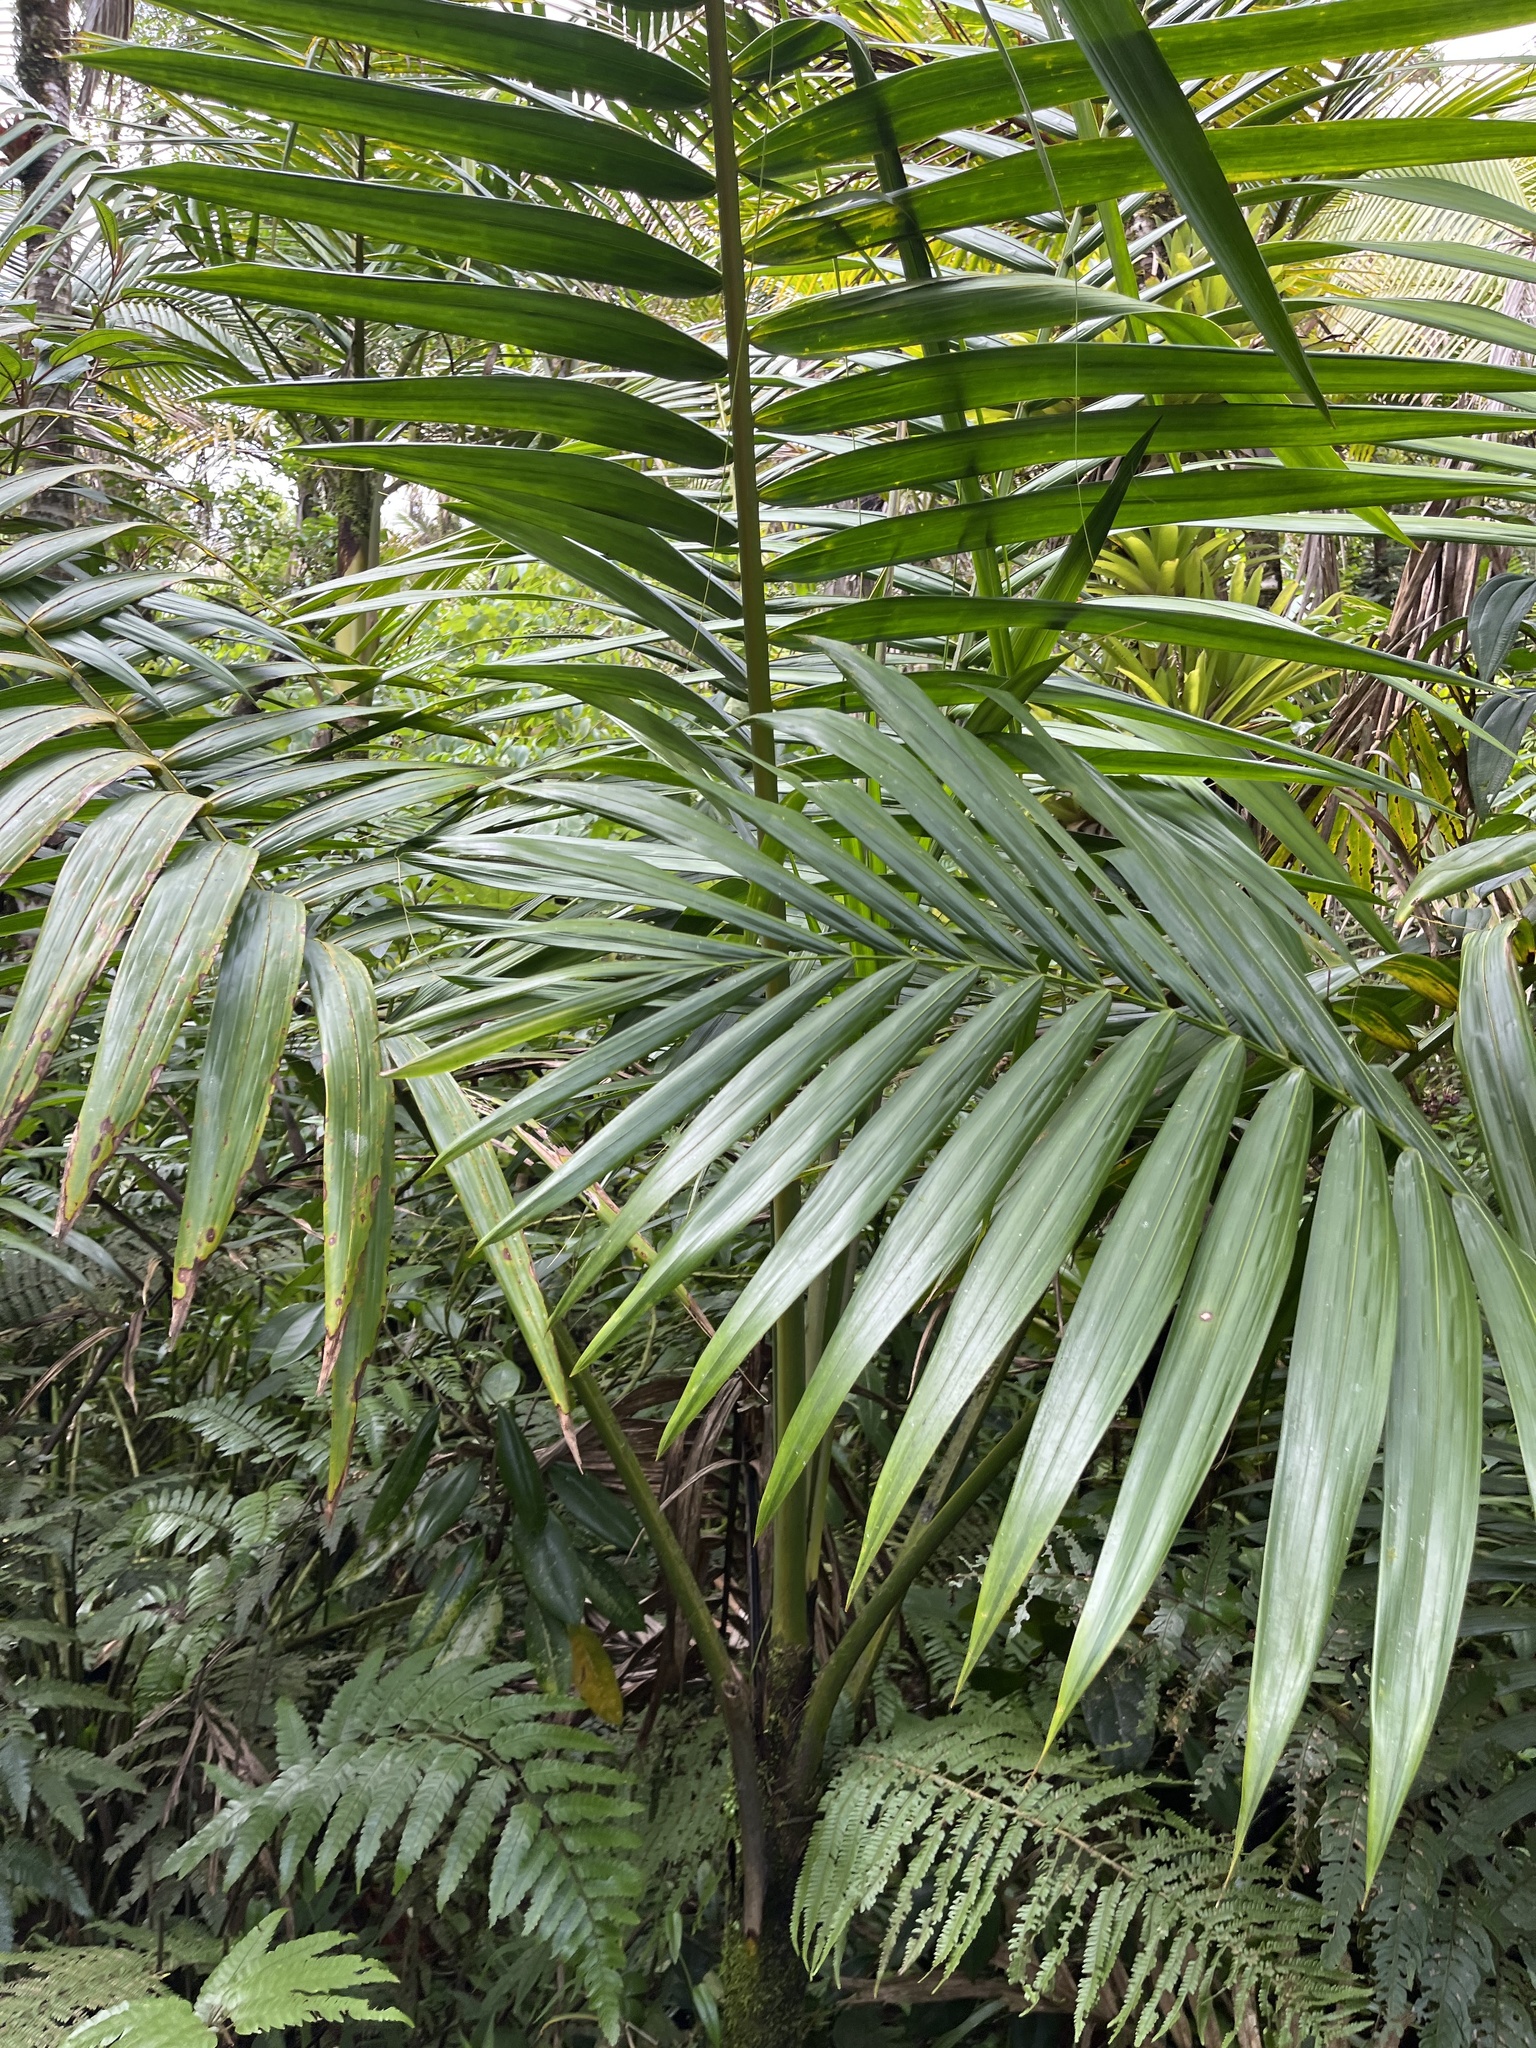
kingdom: Plantae
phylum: Tracheophyta
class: Liliopsida
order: Arecales
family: Arecaceae
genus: Prestoea
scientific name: Prestoea acuminata
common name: Sierran palm
